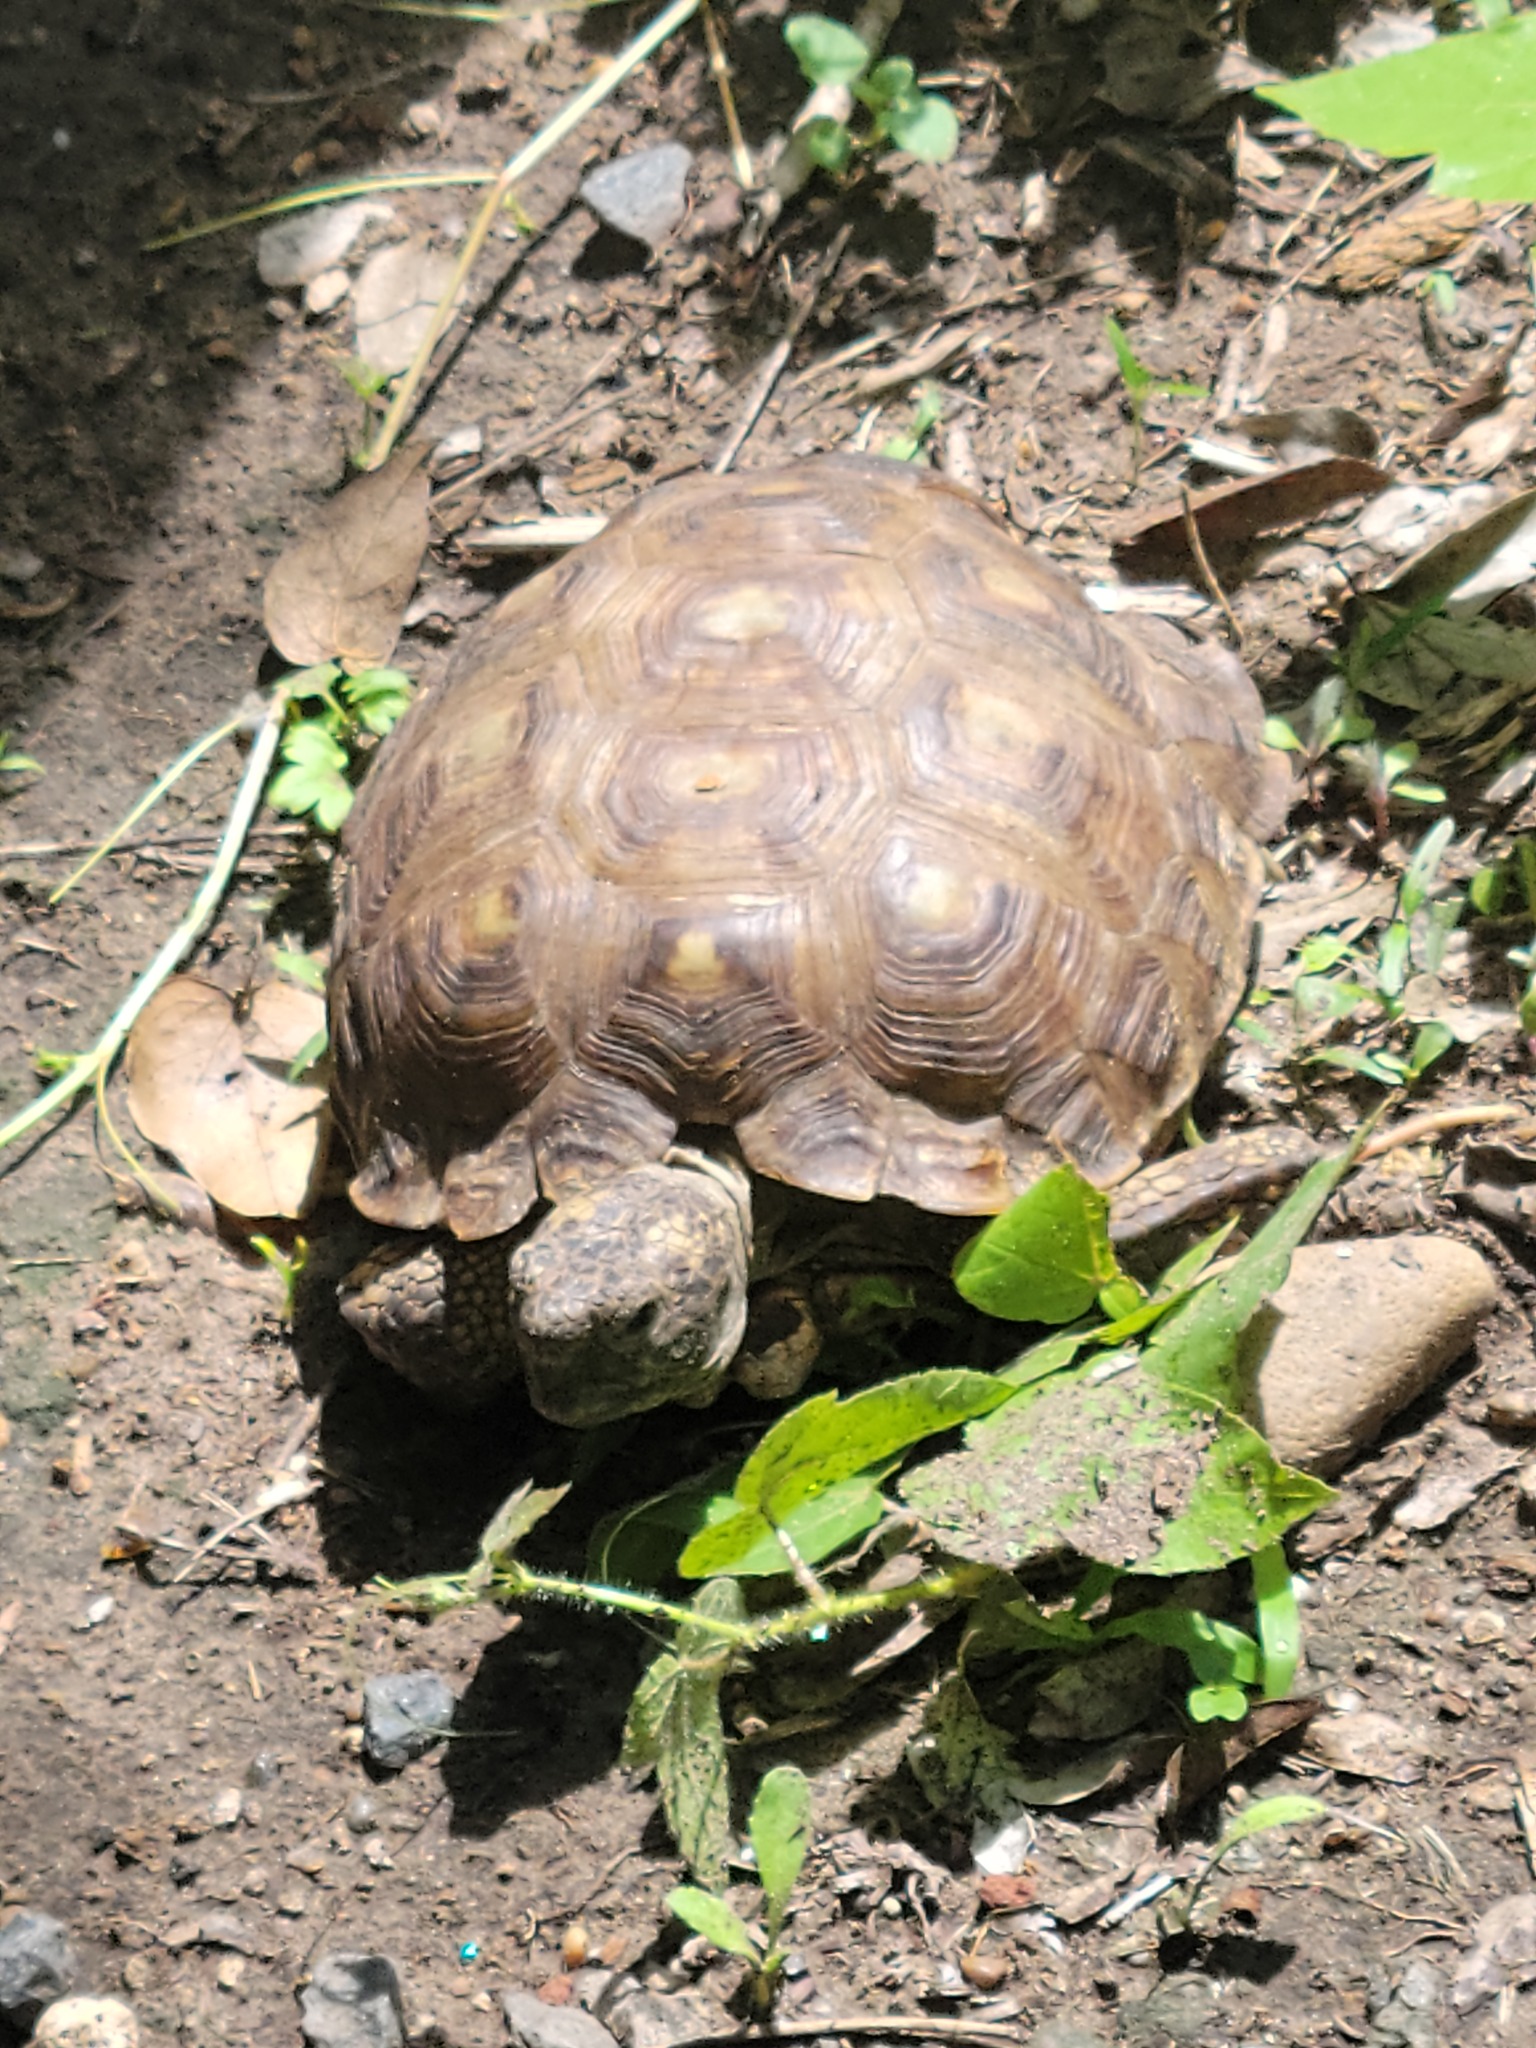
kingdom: Animalia
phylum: Chordata
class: Testudines
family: Testudinidae
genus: Gopherus
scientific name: Gopherus berlandieri
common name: Texas (gopher )tortoise
